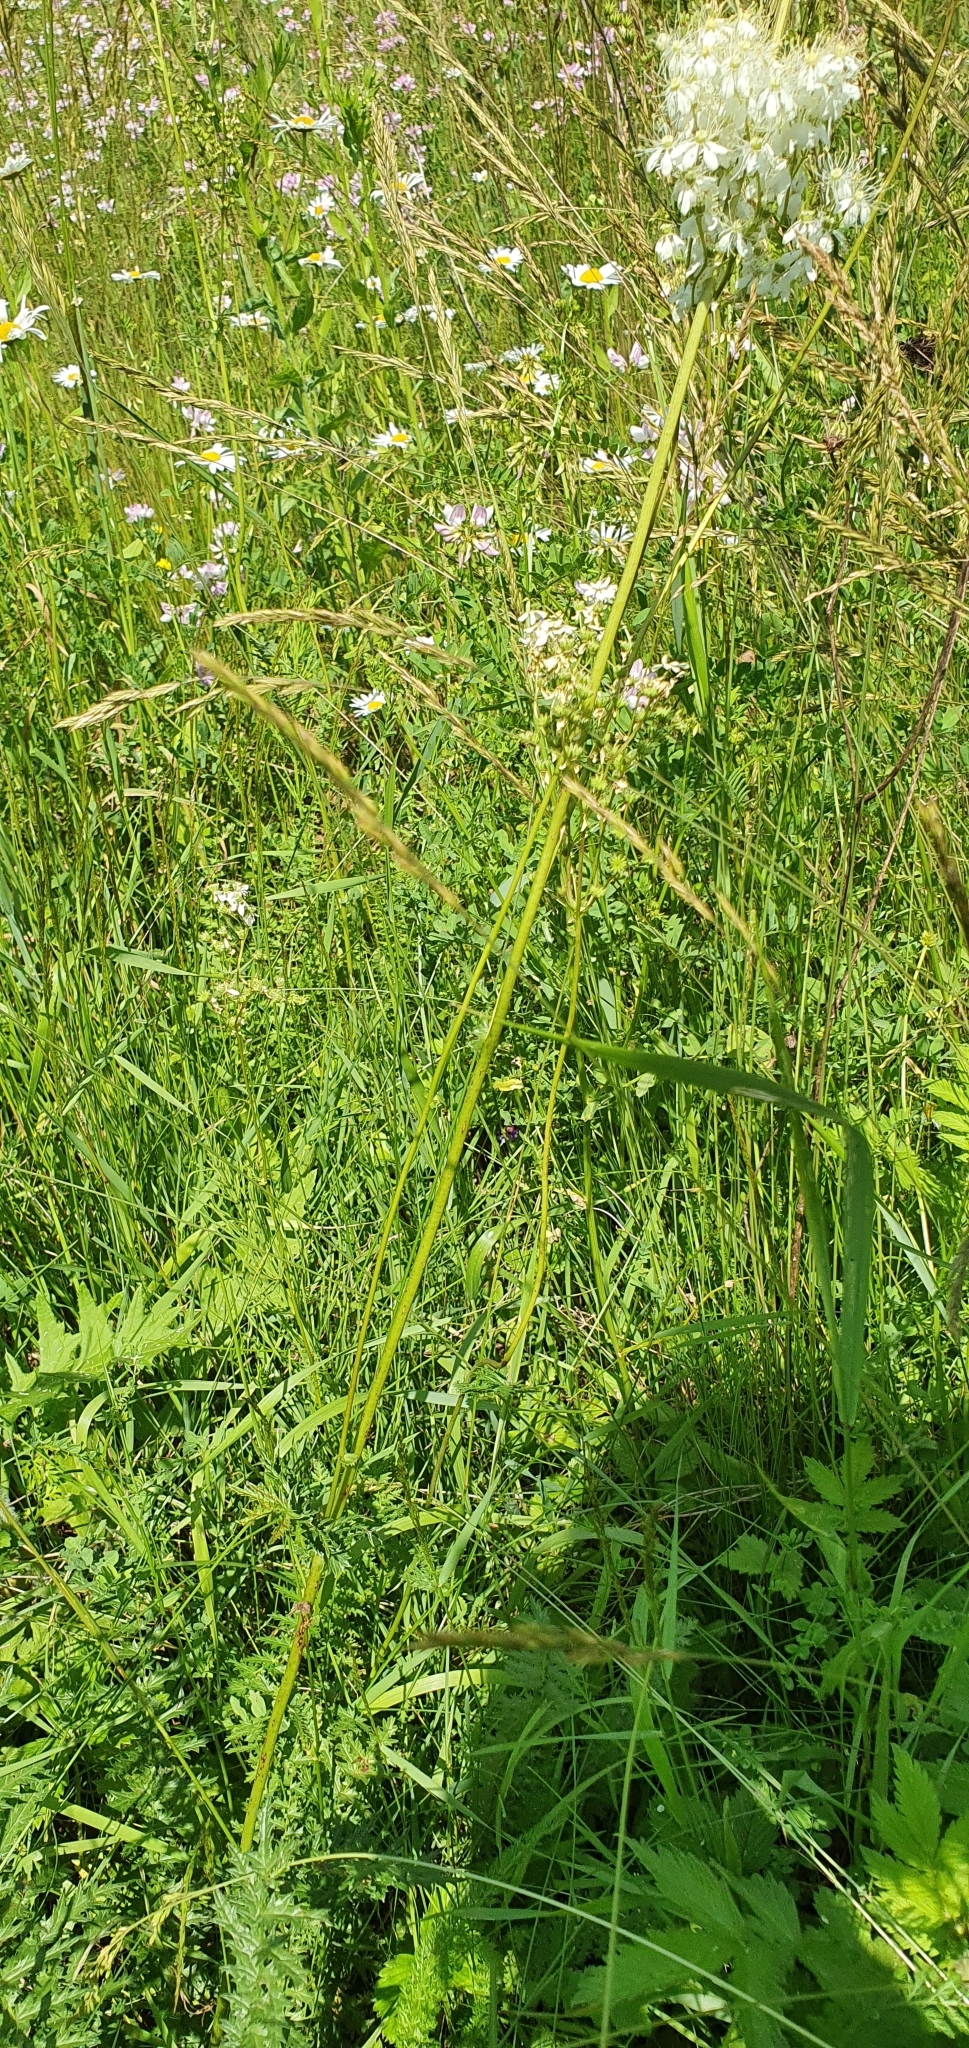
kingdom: Plantae
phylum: Tracheophyta
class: Magnoliopsida
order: Rosales
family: Rosaceae
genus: Filipendula
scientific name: Filipendula vulgaris
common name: Dropwort
